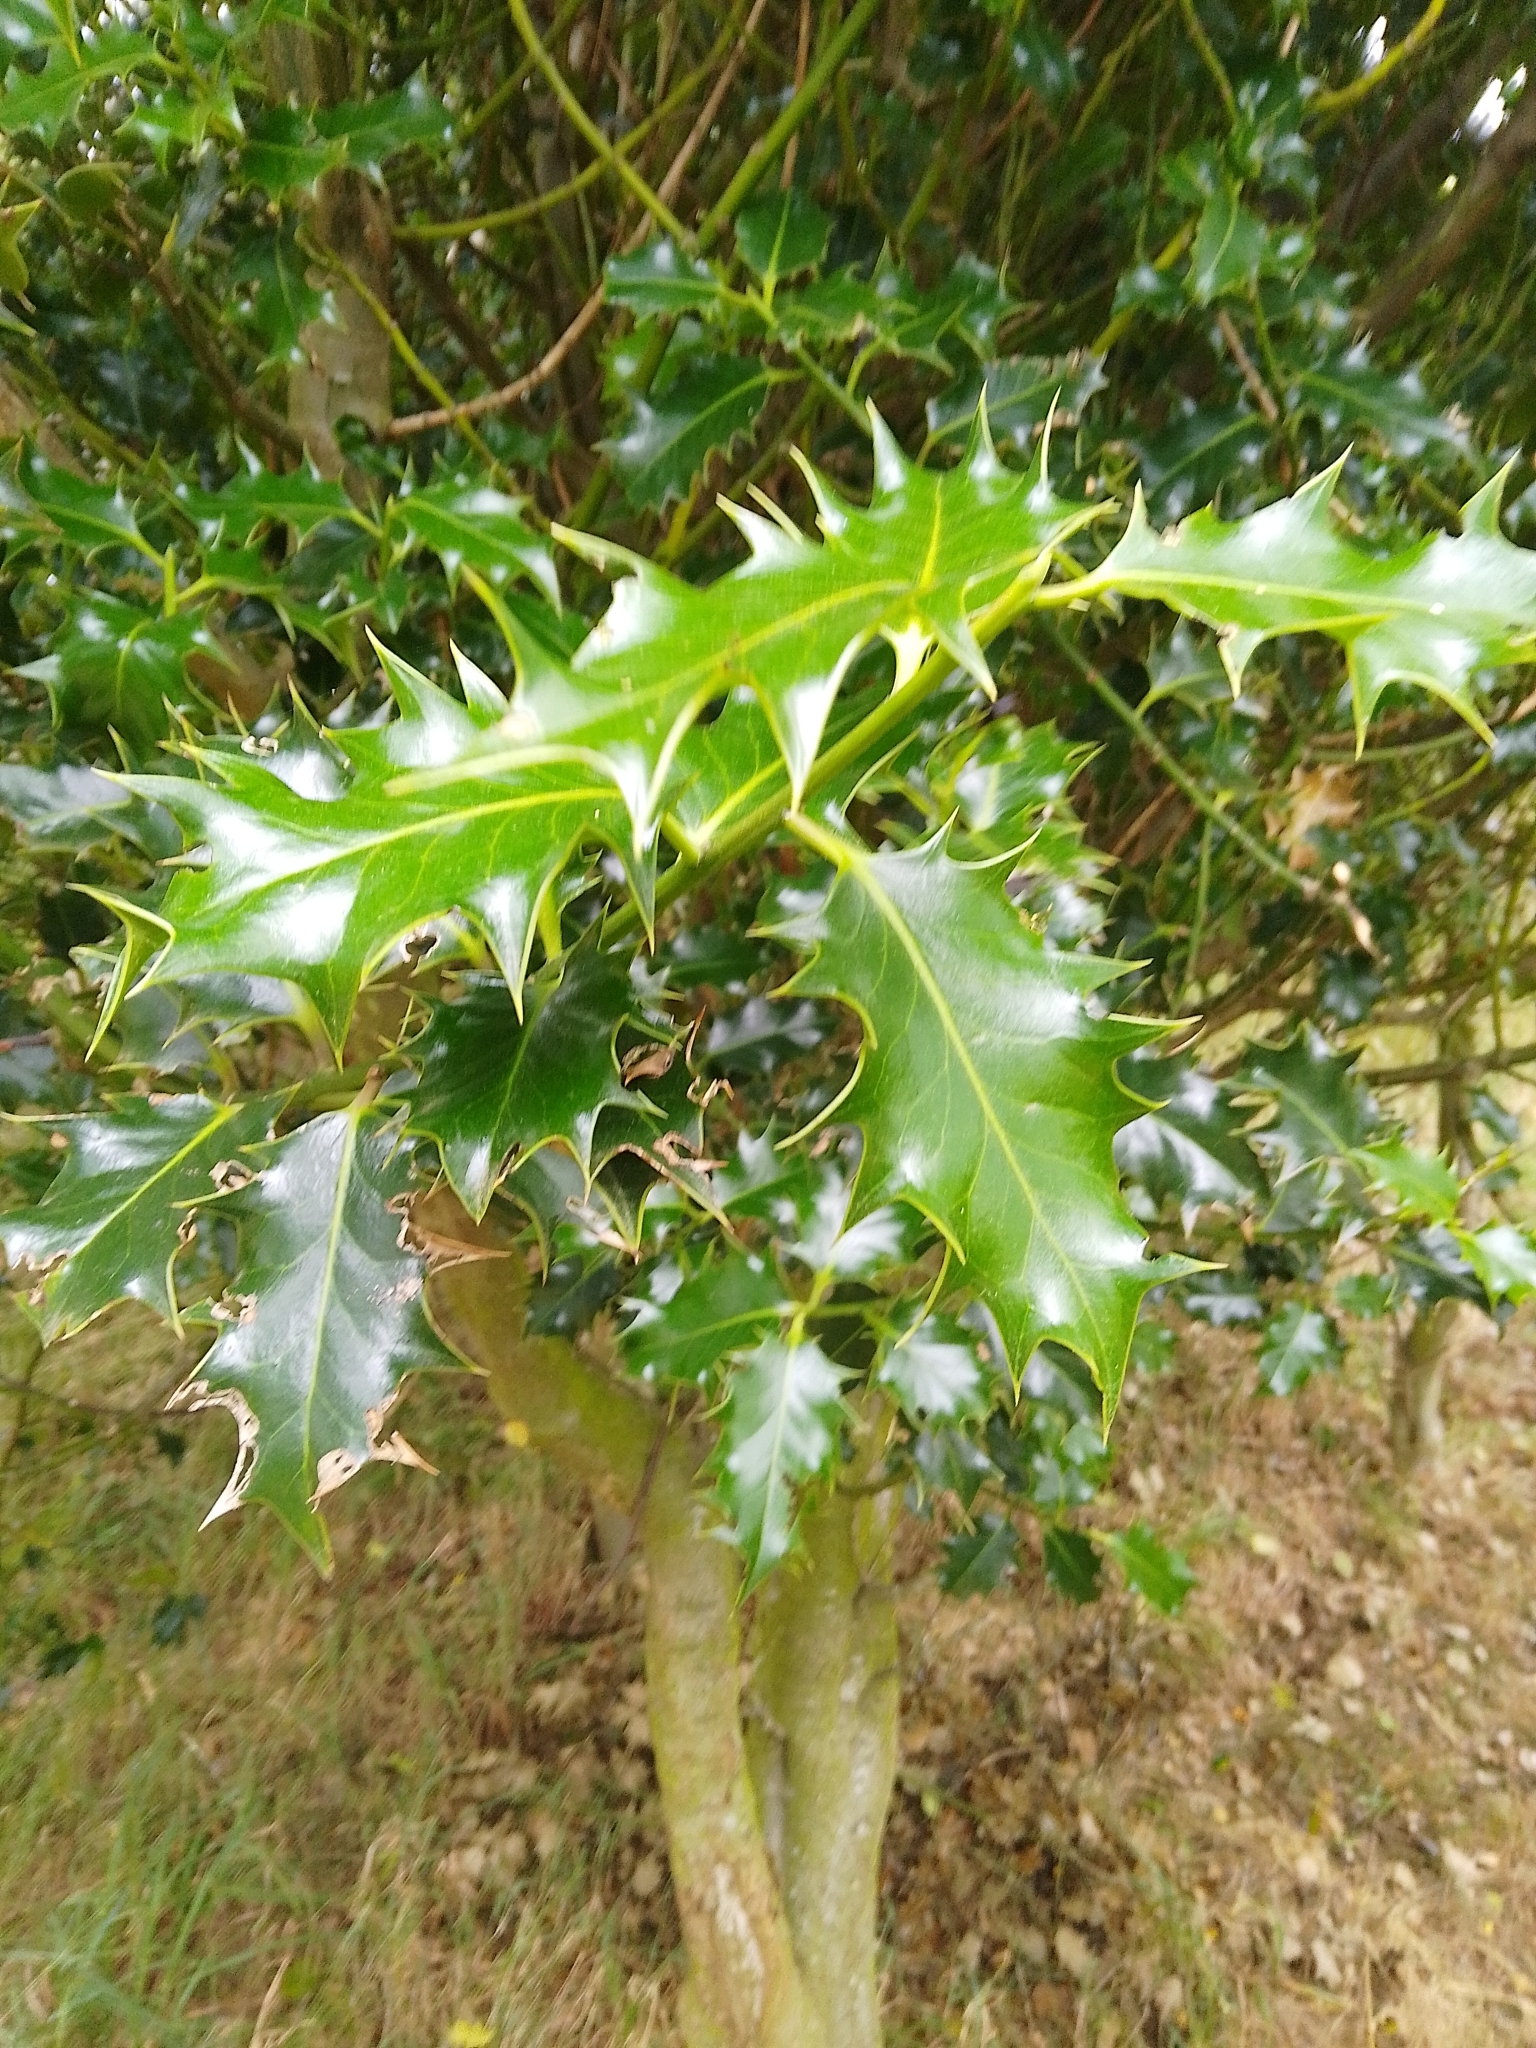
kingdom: Plantae
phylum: Tracheophyta
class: Magnoliopsida
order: Aquifoliales
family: Aquifoliaceae
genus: Ilex
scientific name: Ilex aquifolium
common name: English holly
